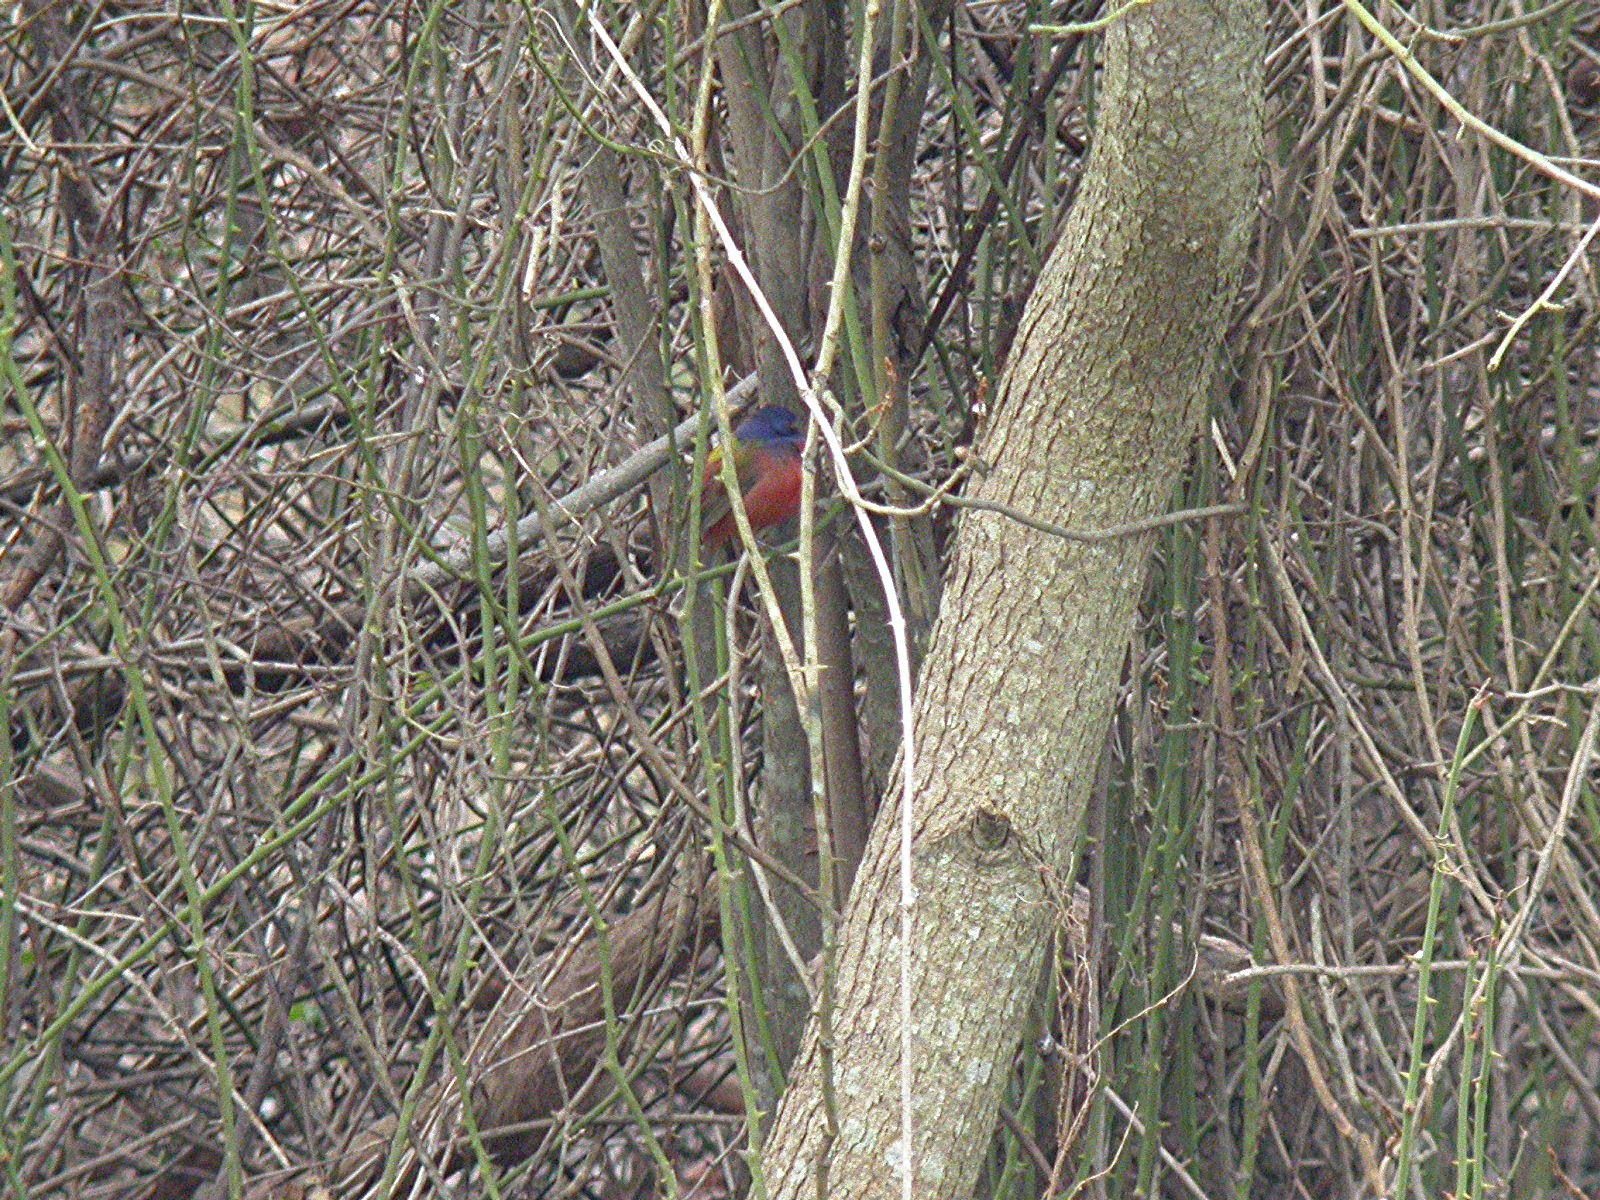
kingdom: Animalia
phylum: Chordata
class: Aves
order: Passeriformes
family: Cardinalidae
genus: Passerina
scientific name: Passerina ciris
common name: Painted bunting
